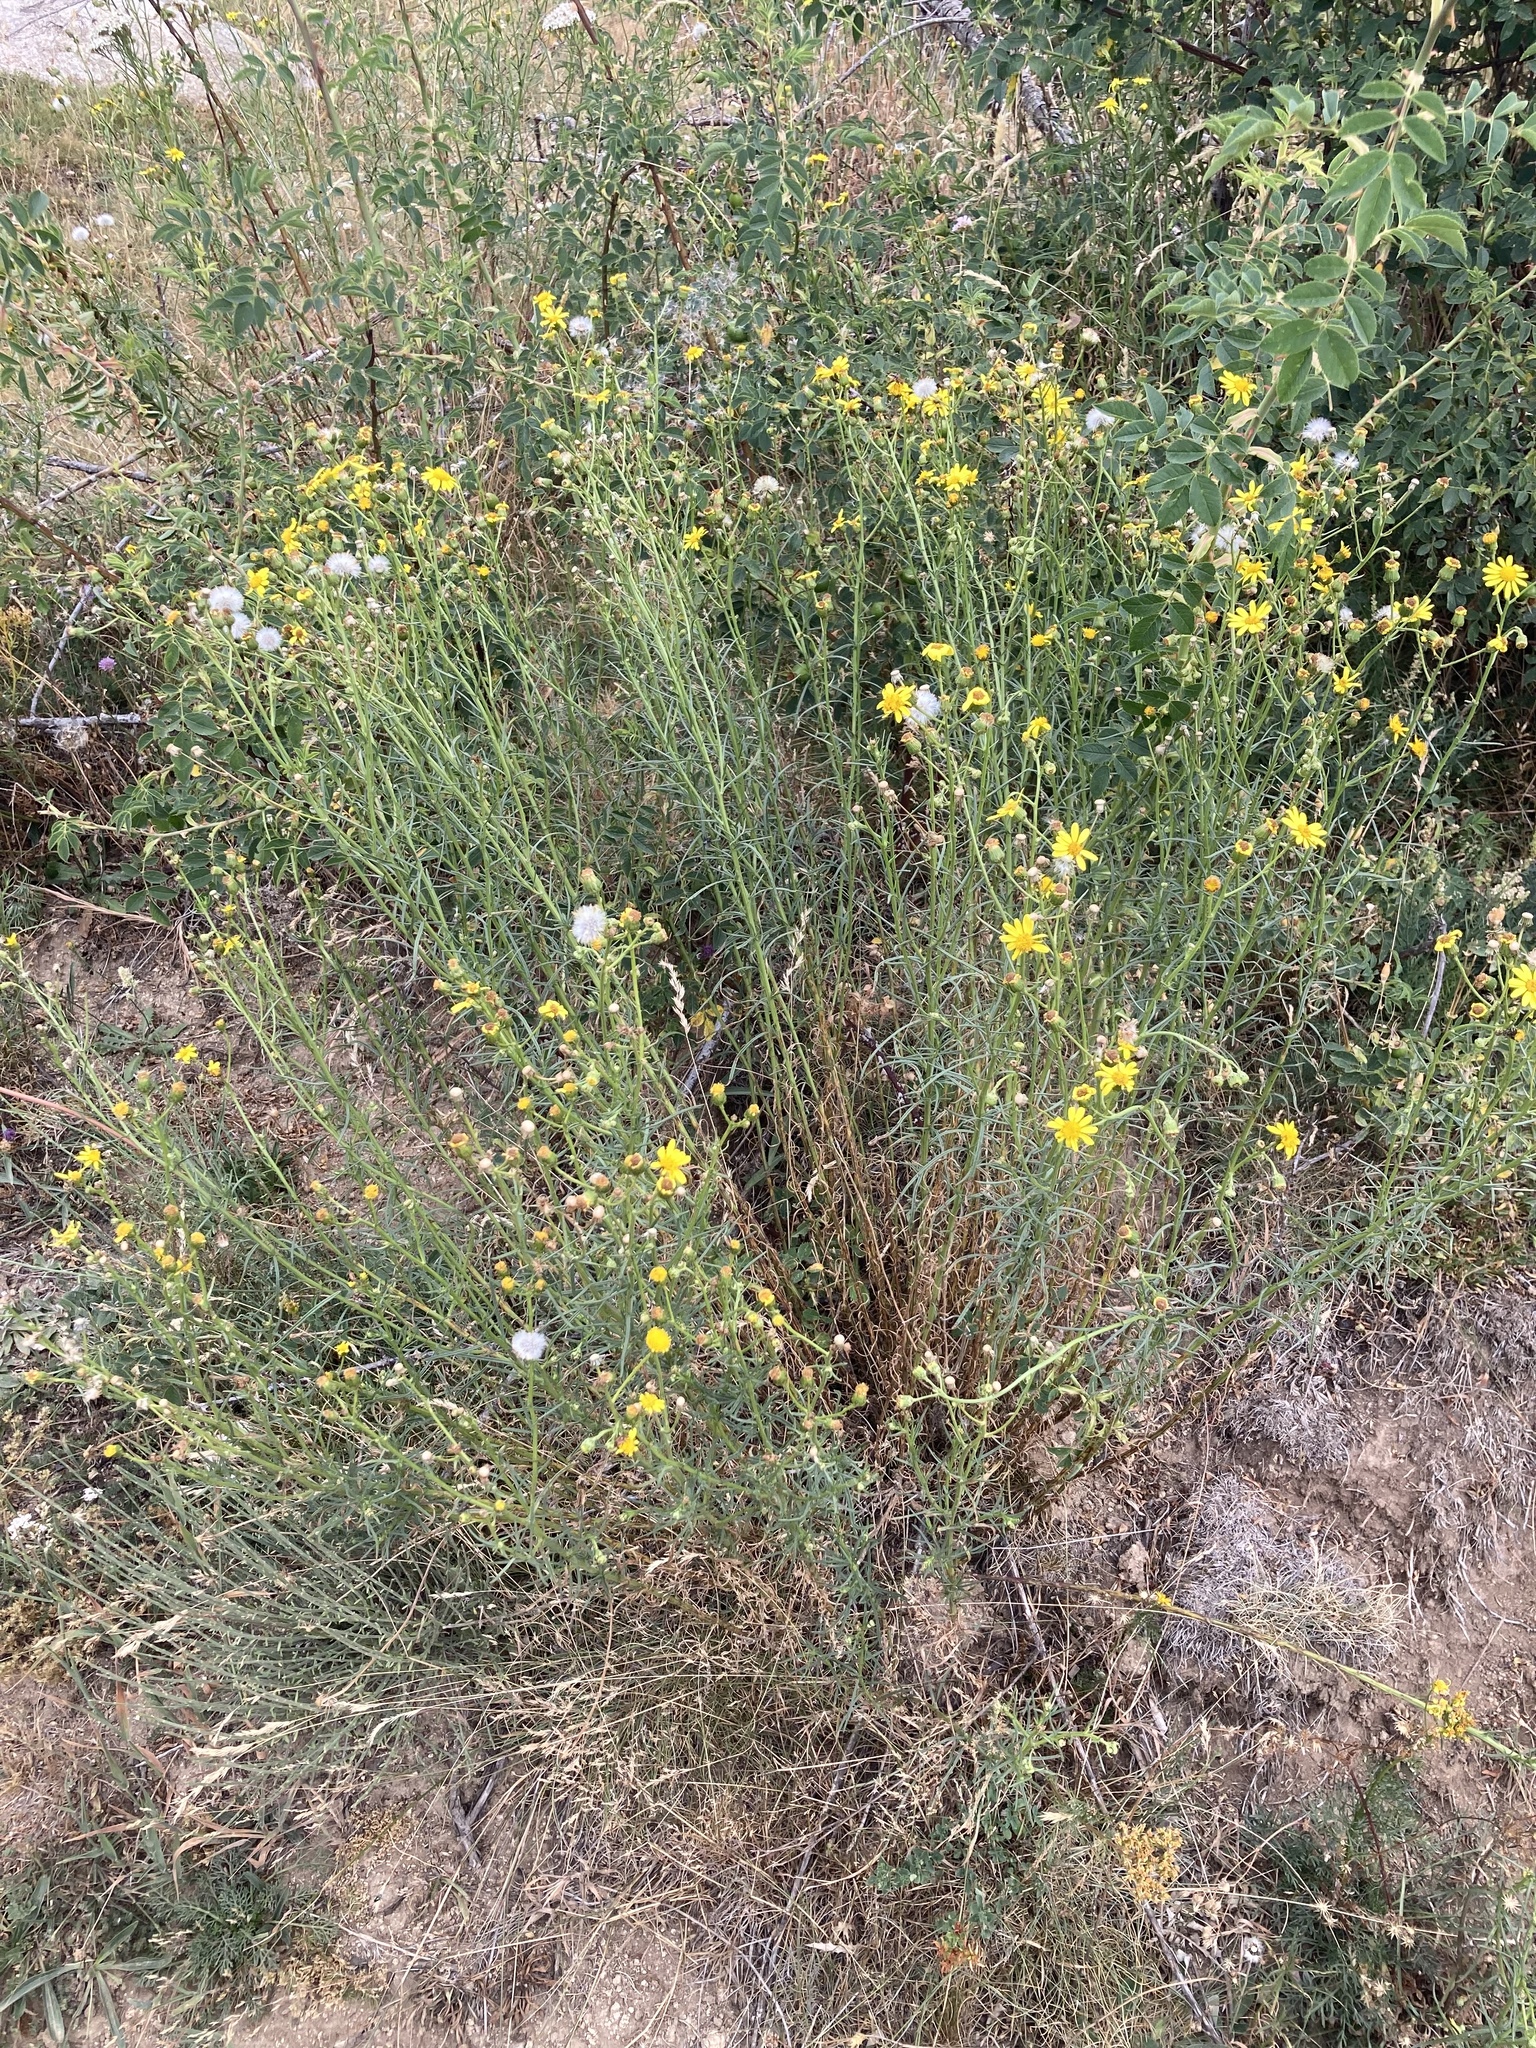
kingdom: Plantae
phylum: Tracheophyta
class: Magnoliopsida
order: Asterales
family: Asteraceae
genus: Senecio
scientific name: Senecio inaequidens
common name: Narrow-leaved ragwort
